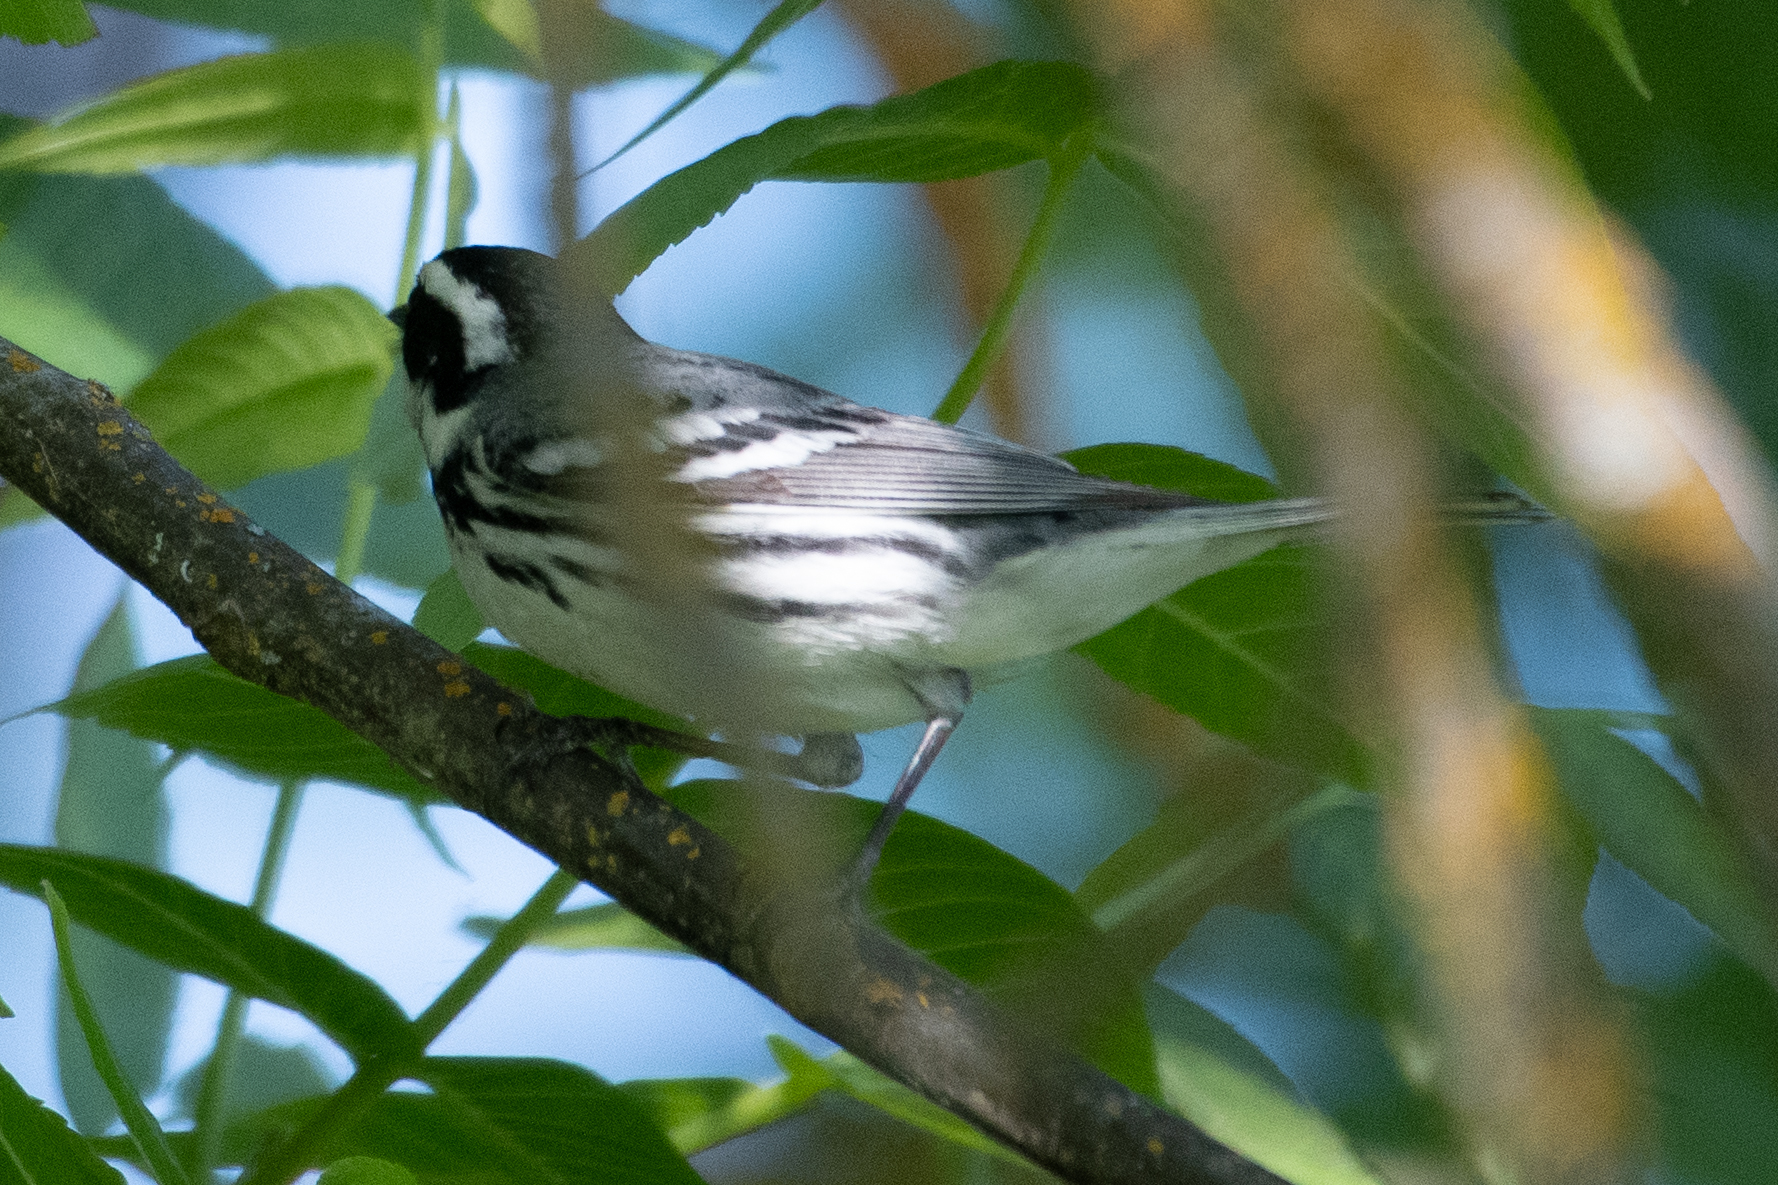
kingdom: Animalia
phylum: Chordata
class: Aves
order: Passeriformes
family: Parulidae
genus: Setophaga
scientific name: Setophaga nigrescens
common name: Black-throated gray warbler
